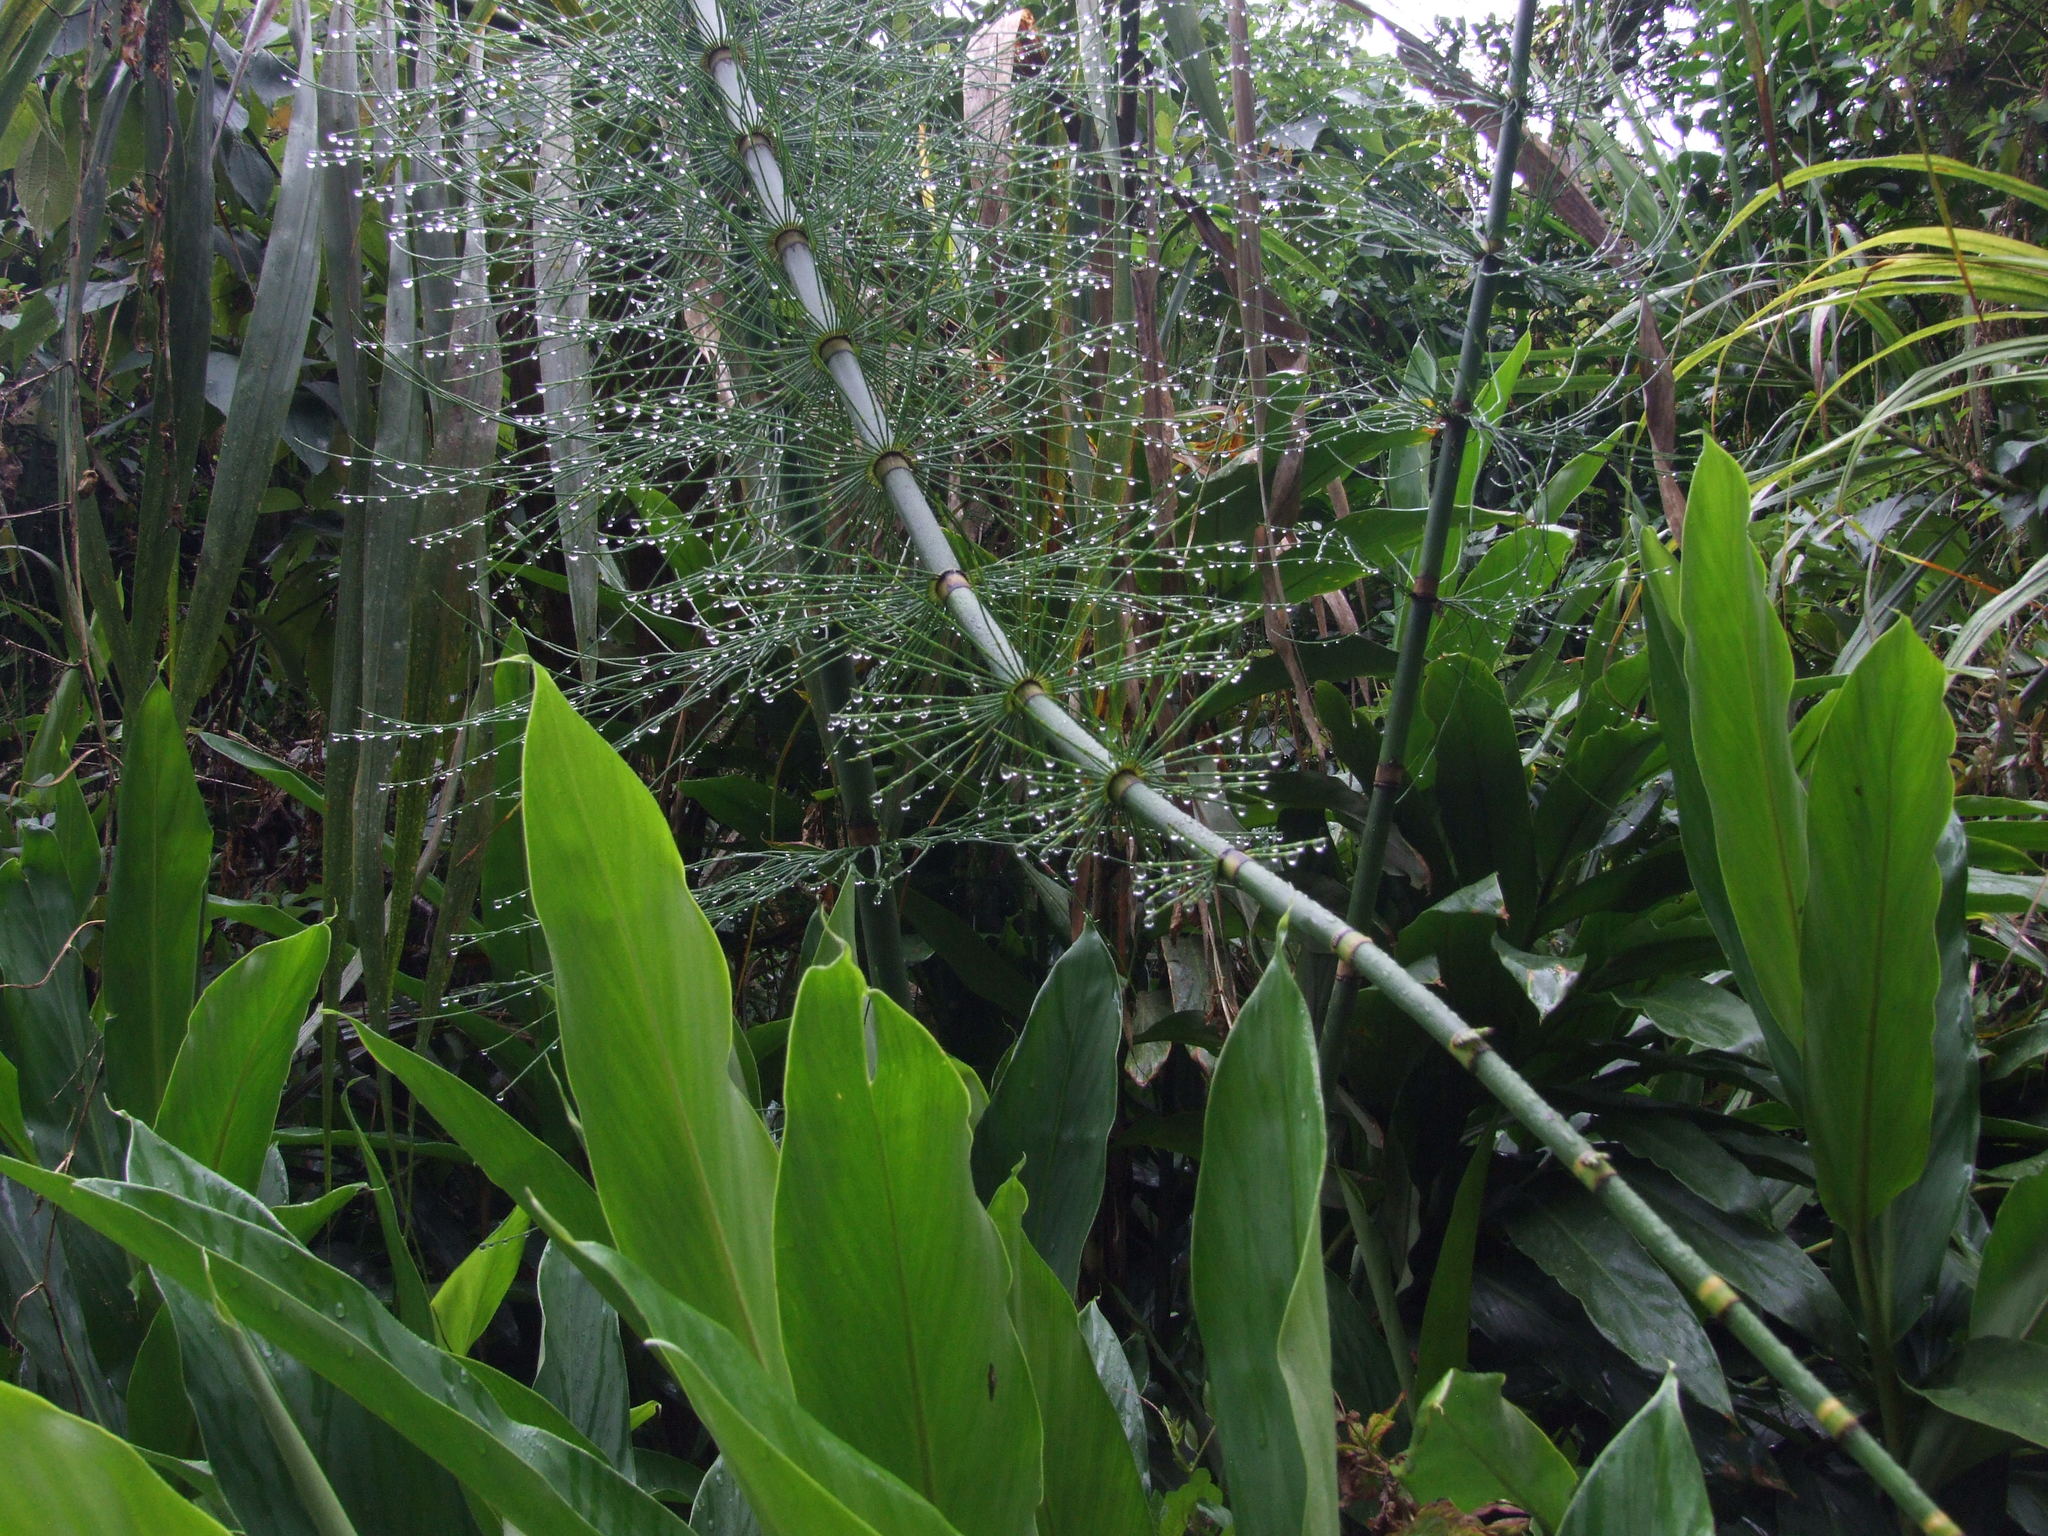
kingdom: Plantae
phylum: Tracheophyta
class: Polypodiopsida
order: Equisetales
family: Equisetaceae
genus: Equisetum
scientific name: Equisetum giganteum
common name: Giant horsetail
